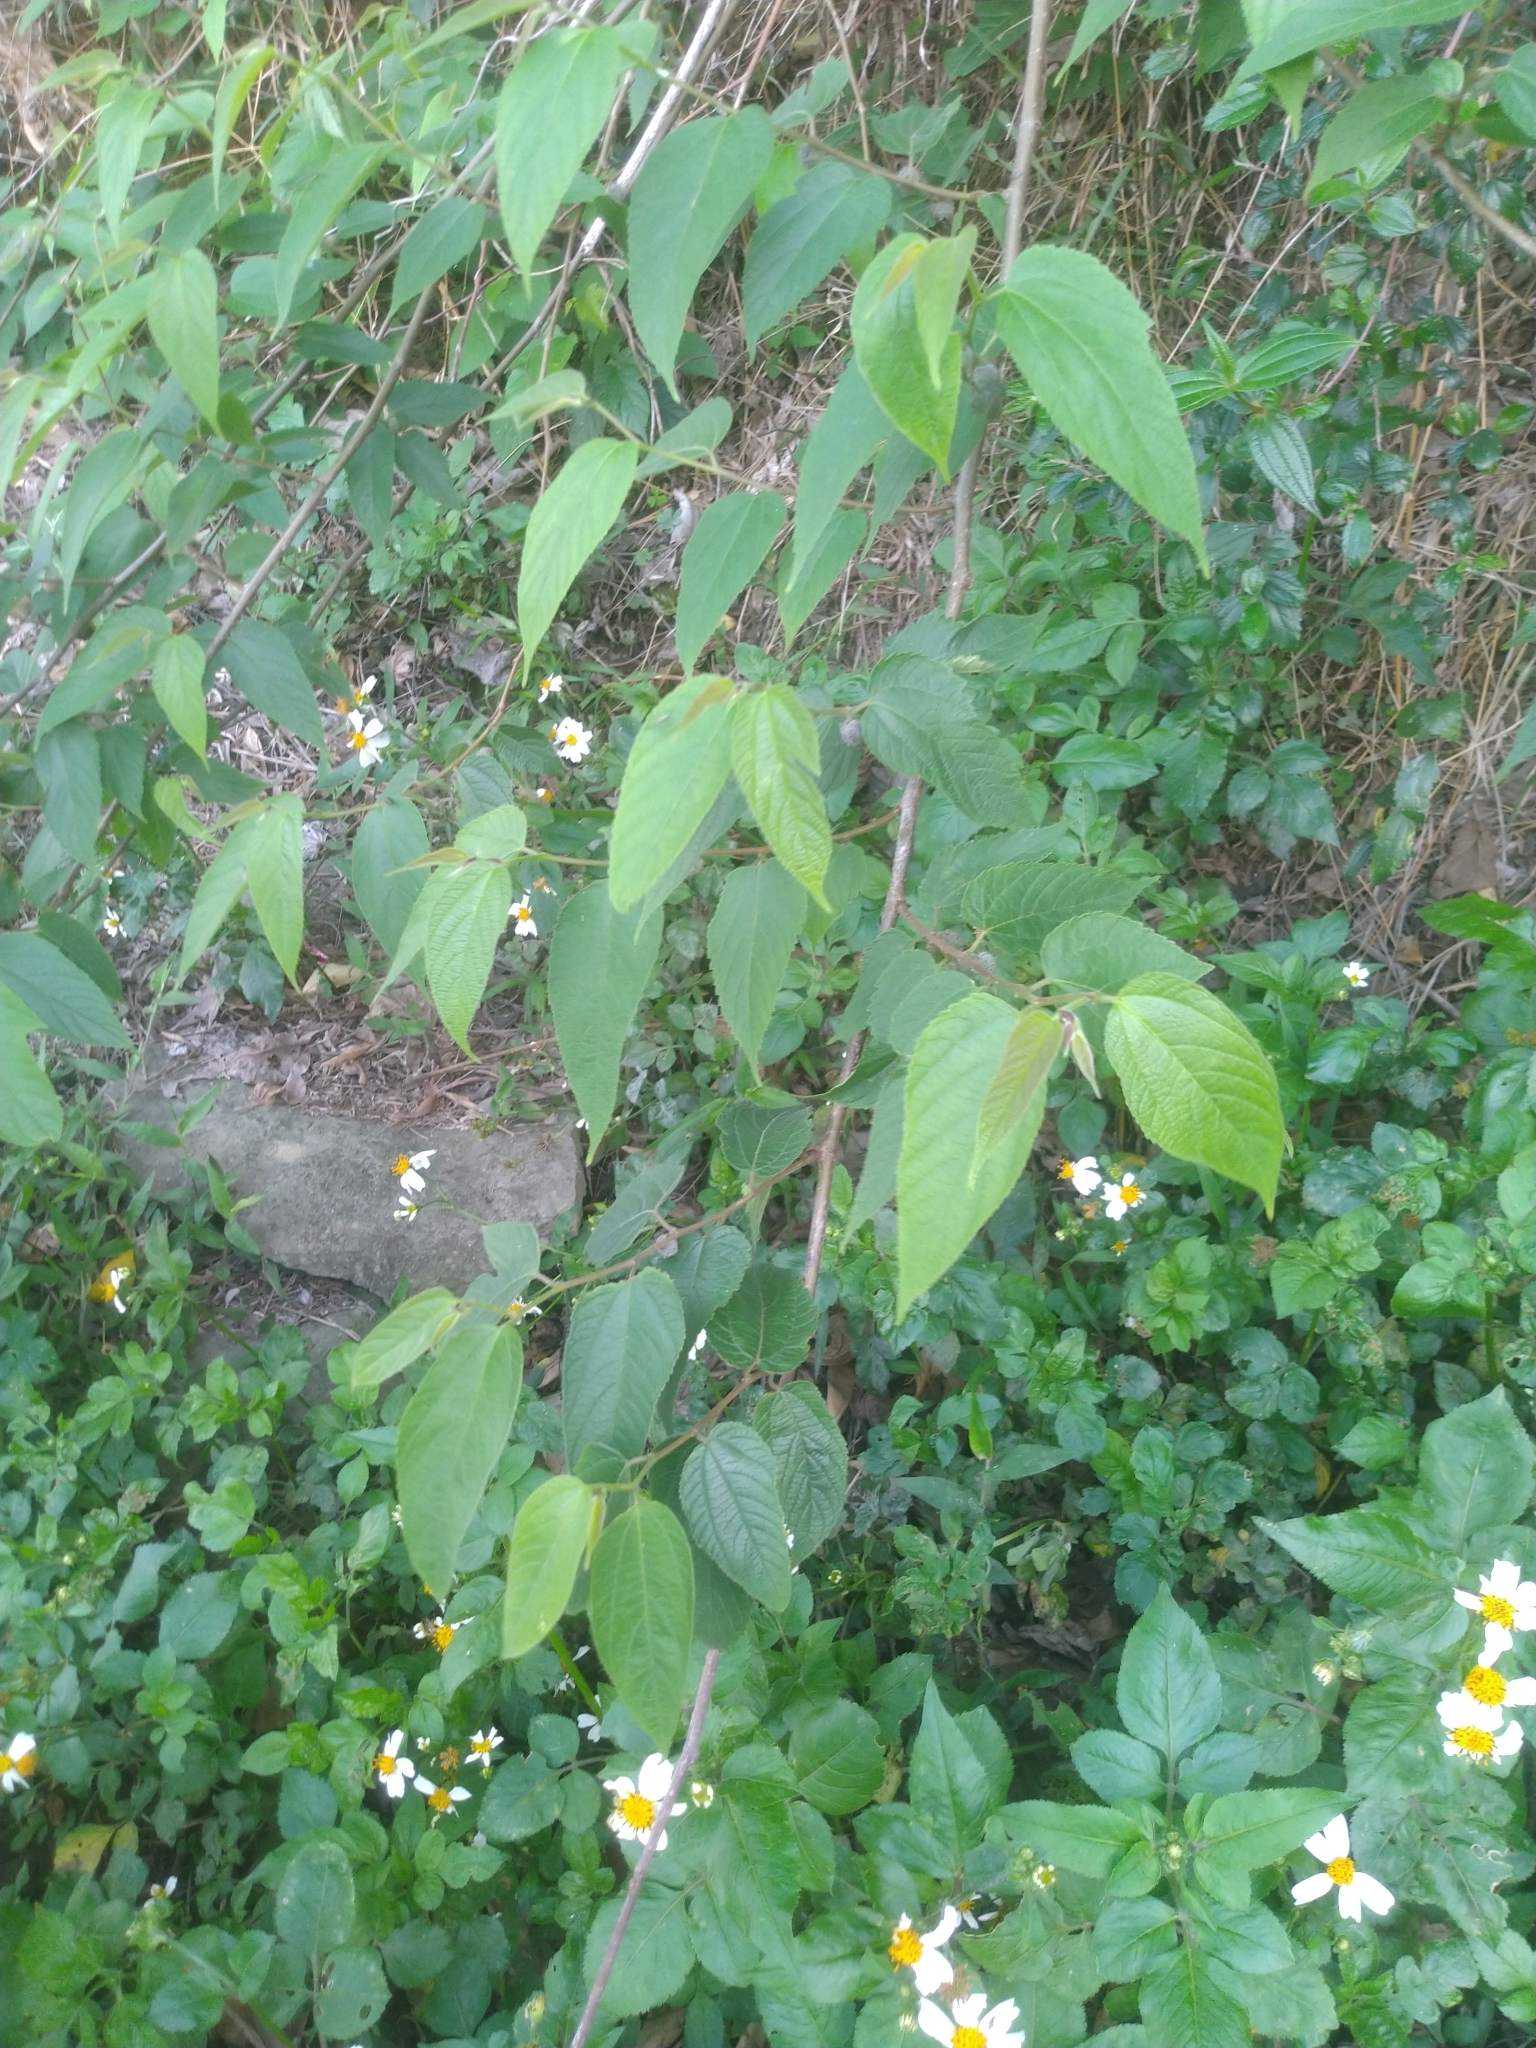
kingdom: Plantae
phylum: Tracheophyta
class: Magnoliopsida
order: Rosales
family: Moraceae
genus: Broussonetia
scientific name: Broussonetia monoica
